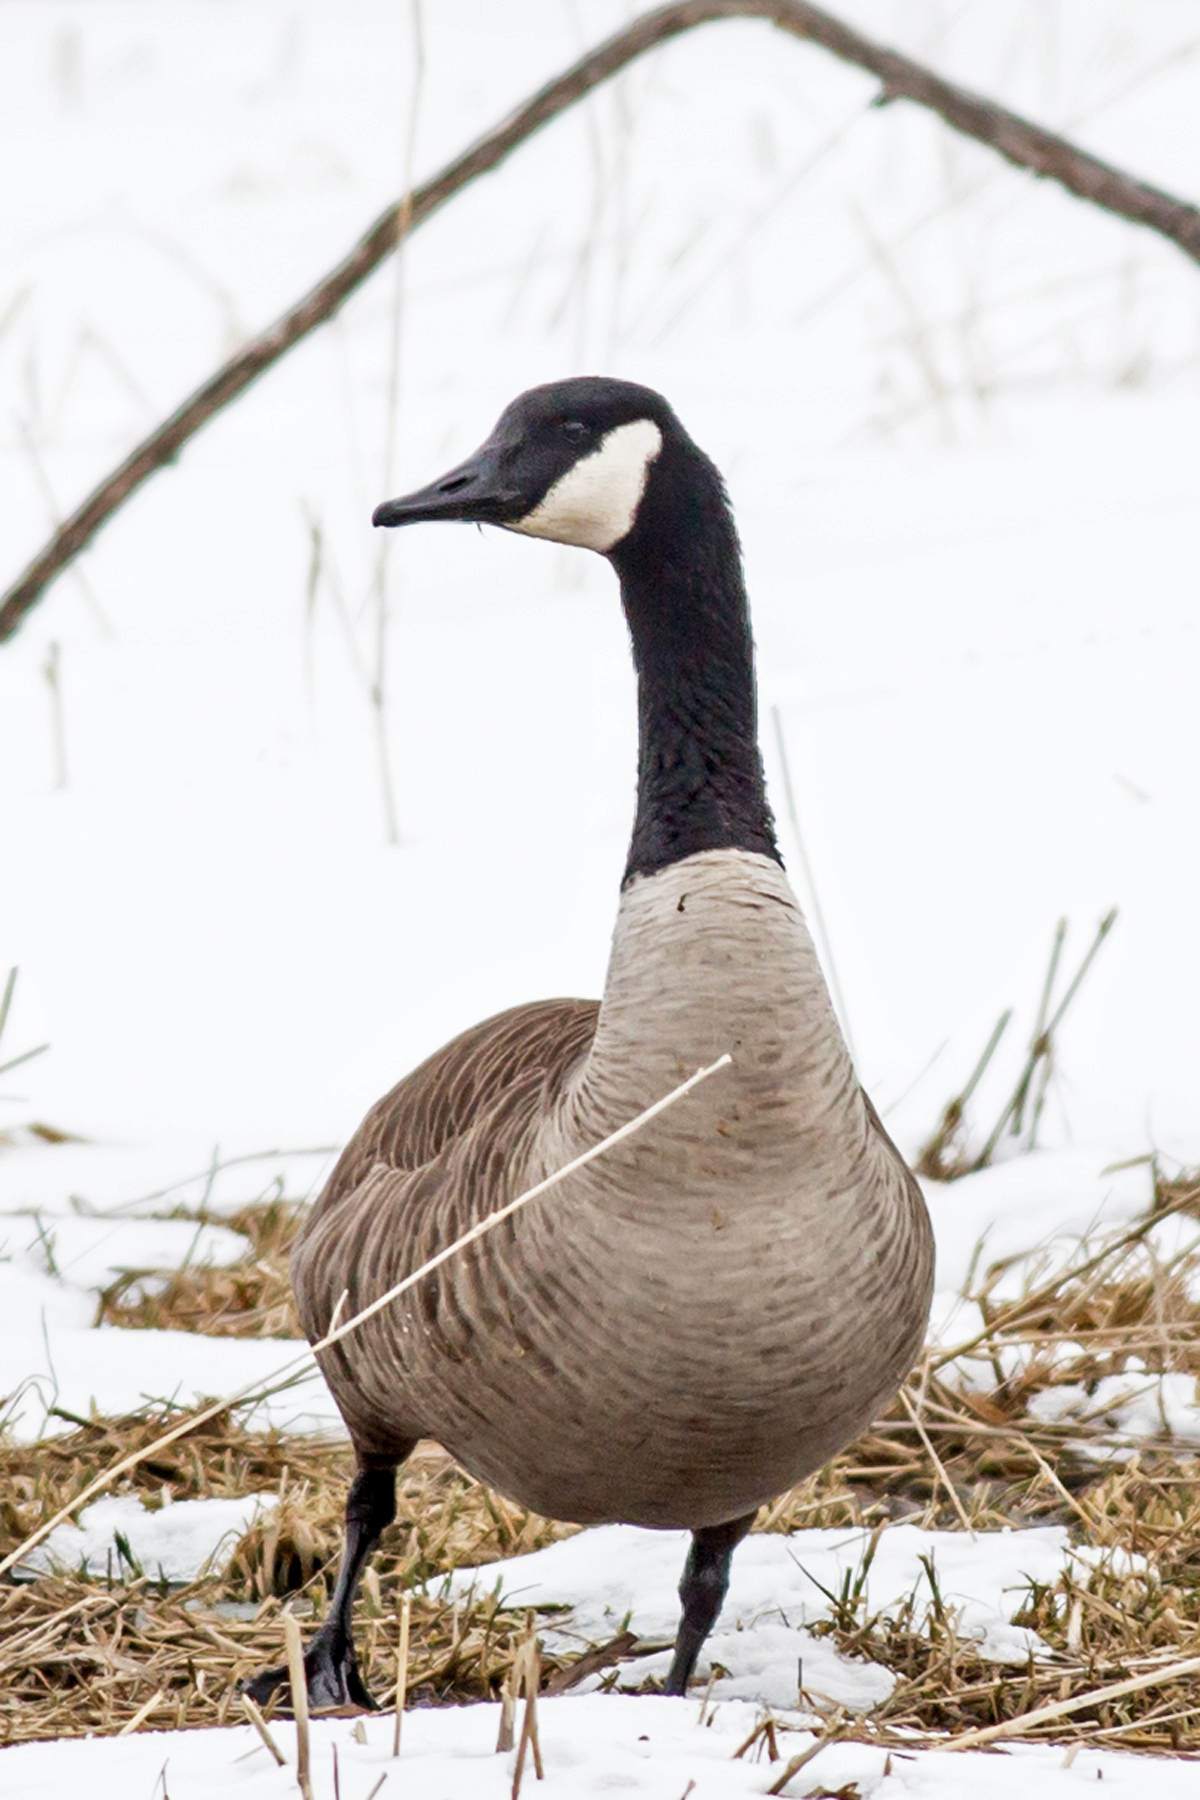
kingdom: Animalia
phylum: Chordata
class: Aves
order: Anseriformes
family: Anatidae
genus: Branta
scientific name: Branta canadensis
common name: Canada goose
